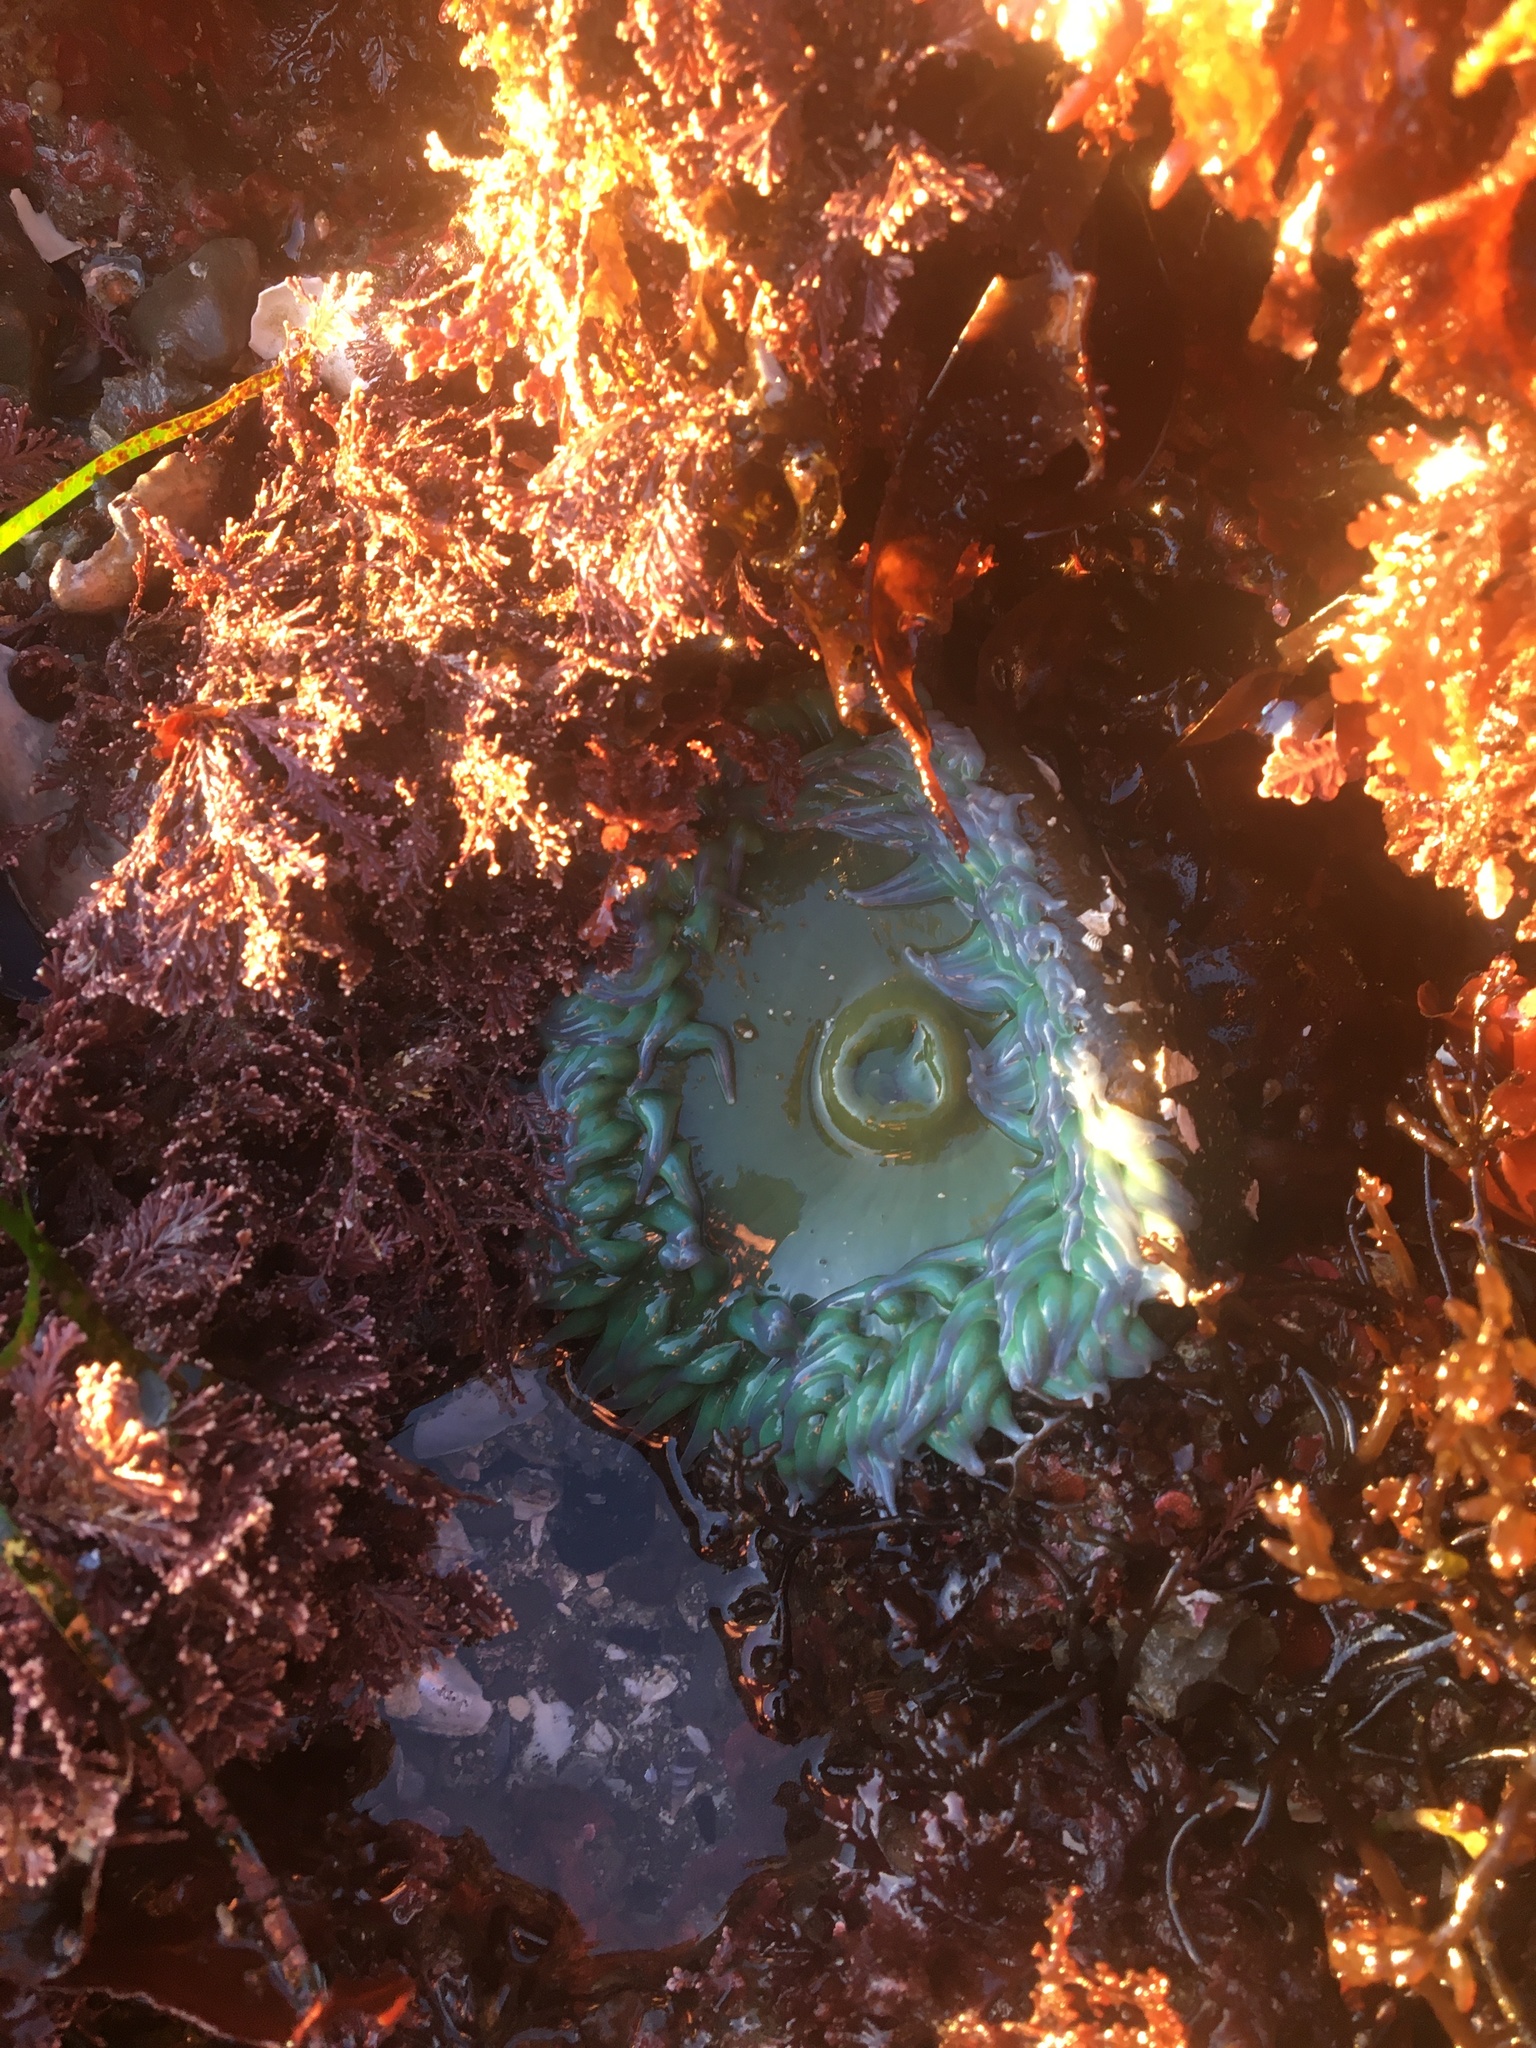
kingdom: Animalia
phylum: Cnidaria
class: Anthozoa
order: Actiniaria
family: Actiniidae
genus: Anthopleura
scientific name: Anthopleura xanthogrammica
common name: Giant green anemone
